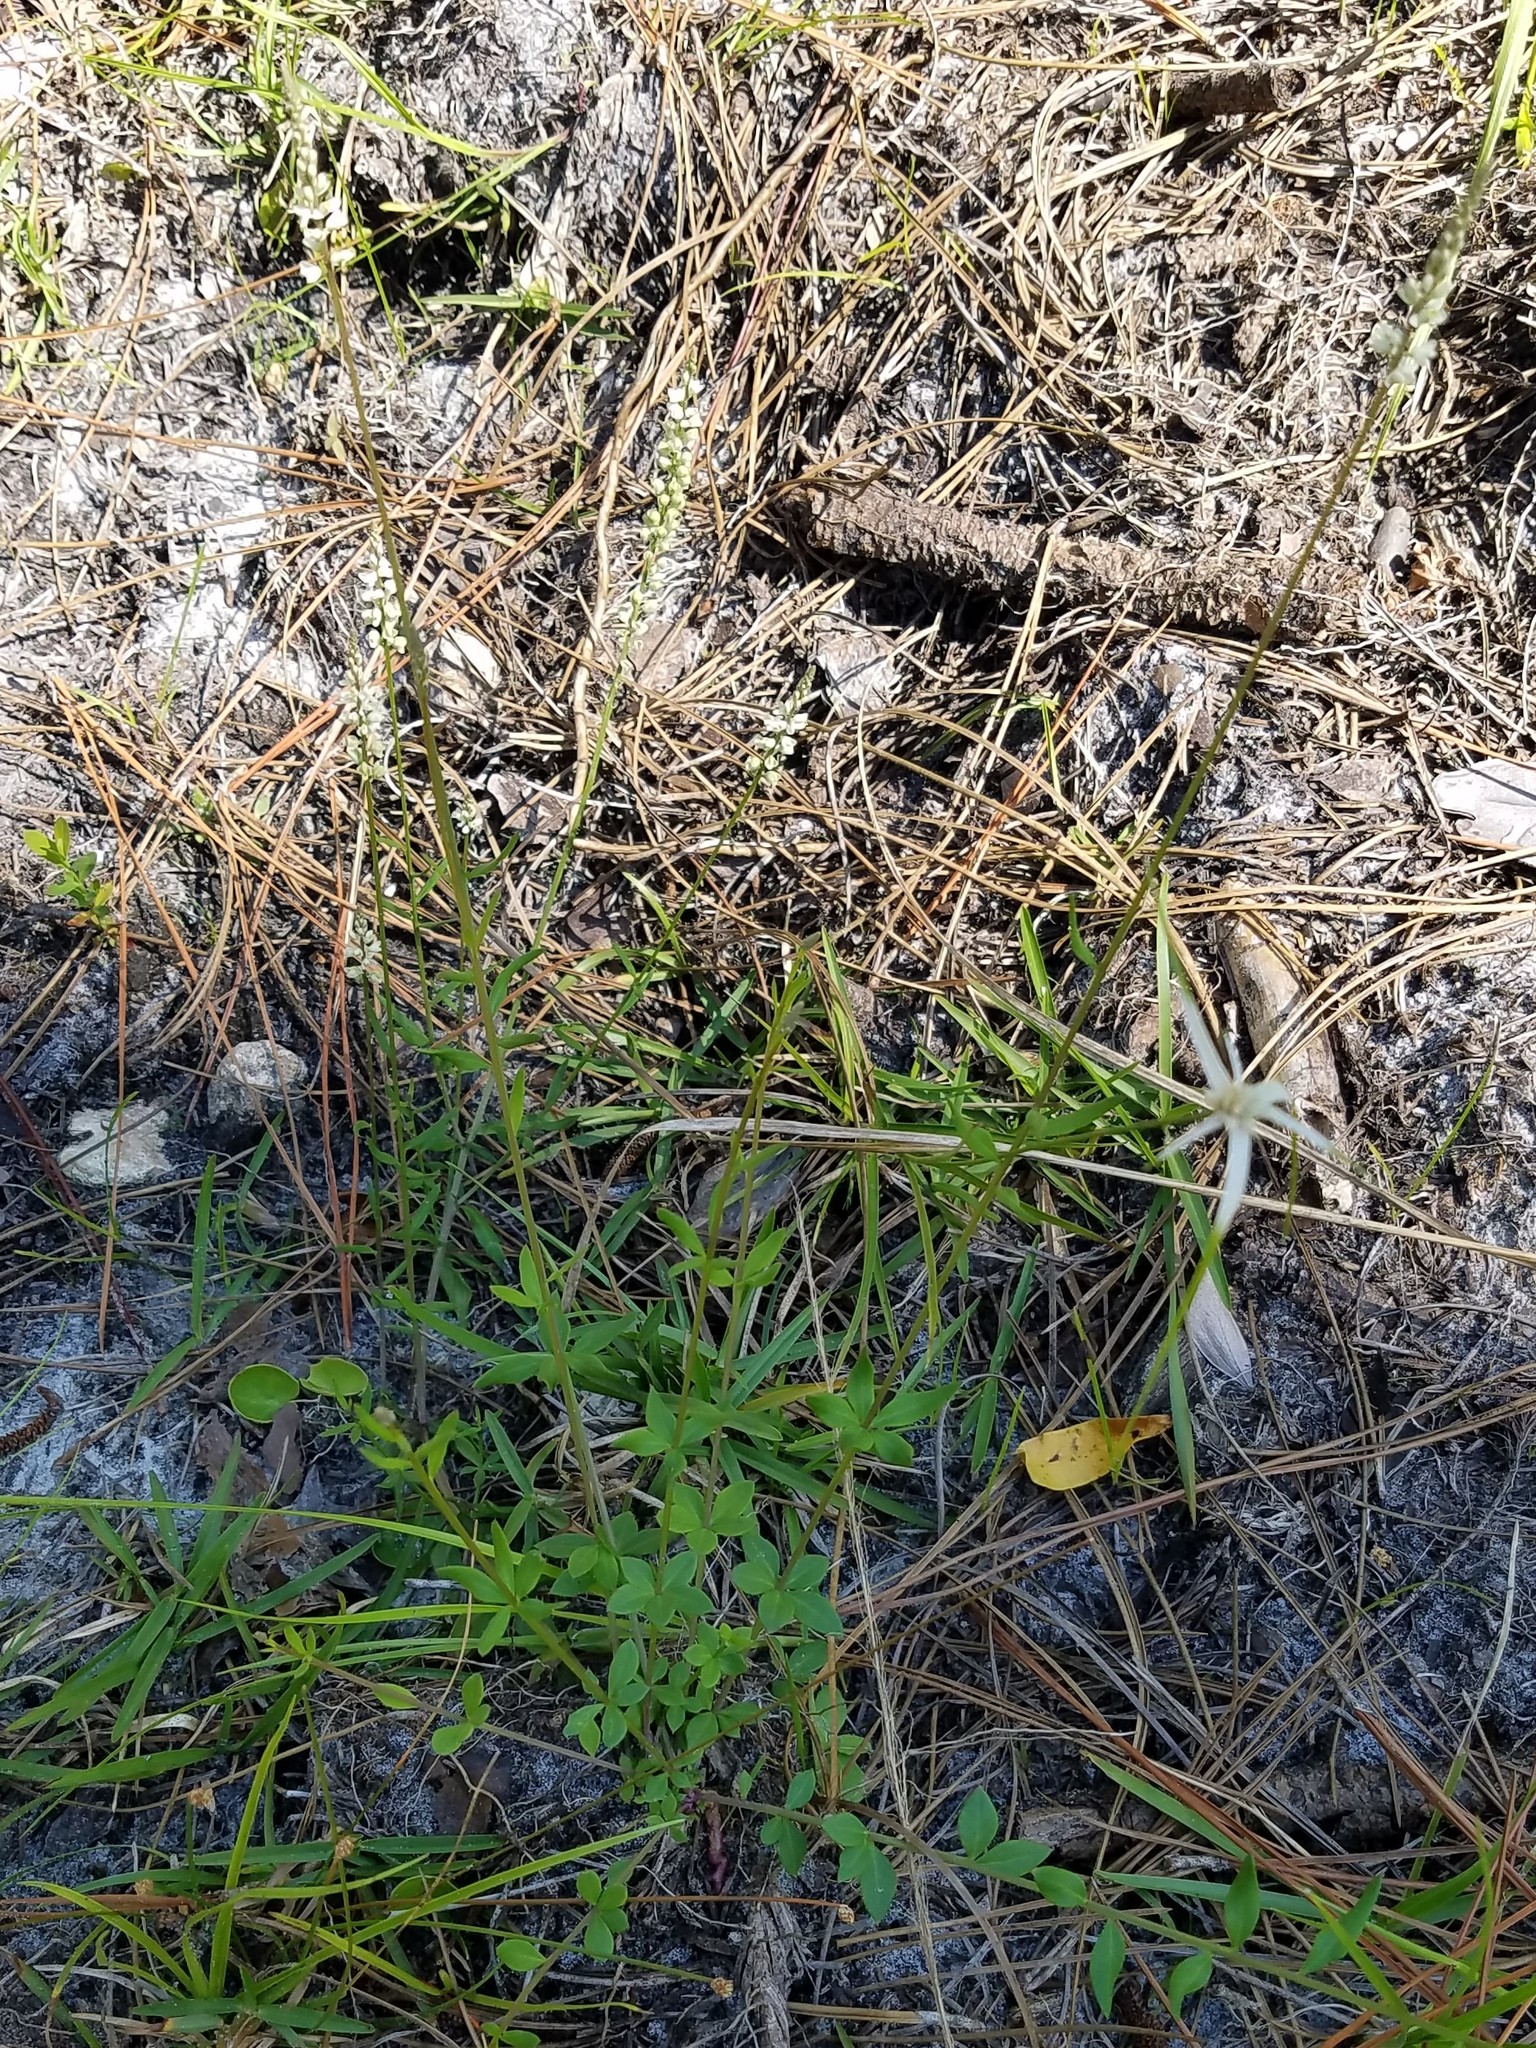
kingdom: Plantae
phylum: Tracheophyta
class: Magnoliopsida
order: Fabales
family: Polygalaceae
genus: Polygala
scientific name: Polygala boykinii
